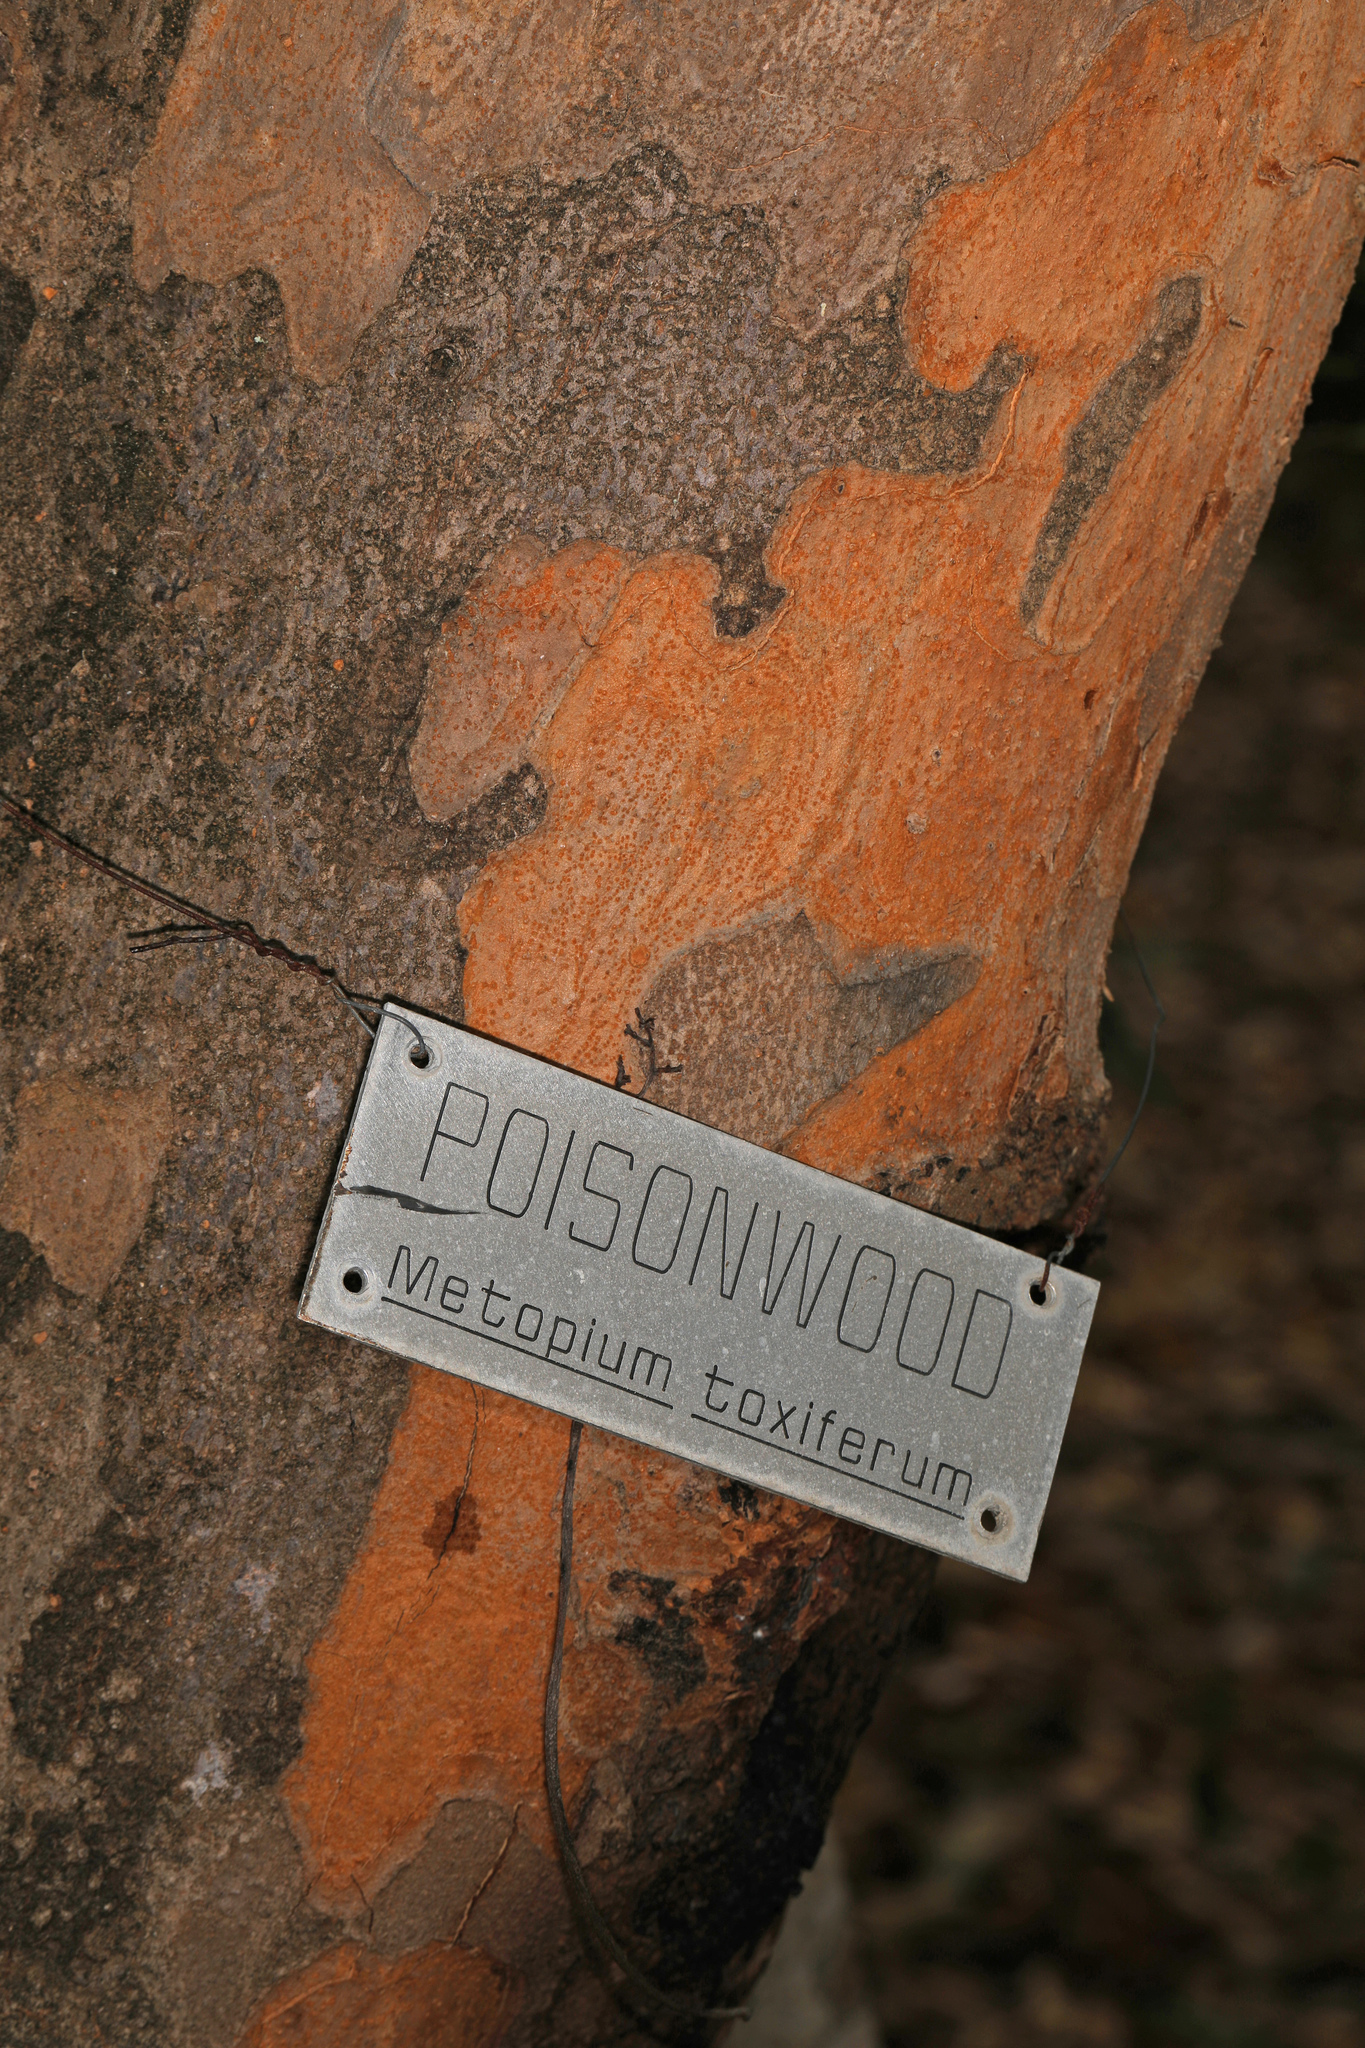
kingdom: Plantae
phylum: Tracheophyta
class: Magnoliopsida
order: Sapindales
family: Anacardiaceae
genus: Metopium
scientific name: Metopium toxiferum
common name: Florida poisontree
